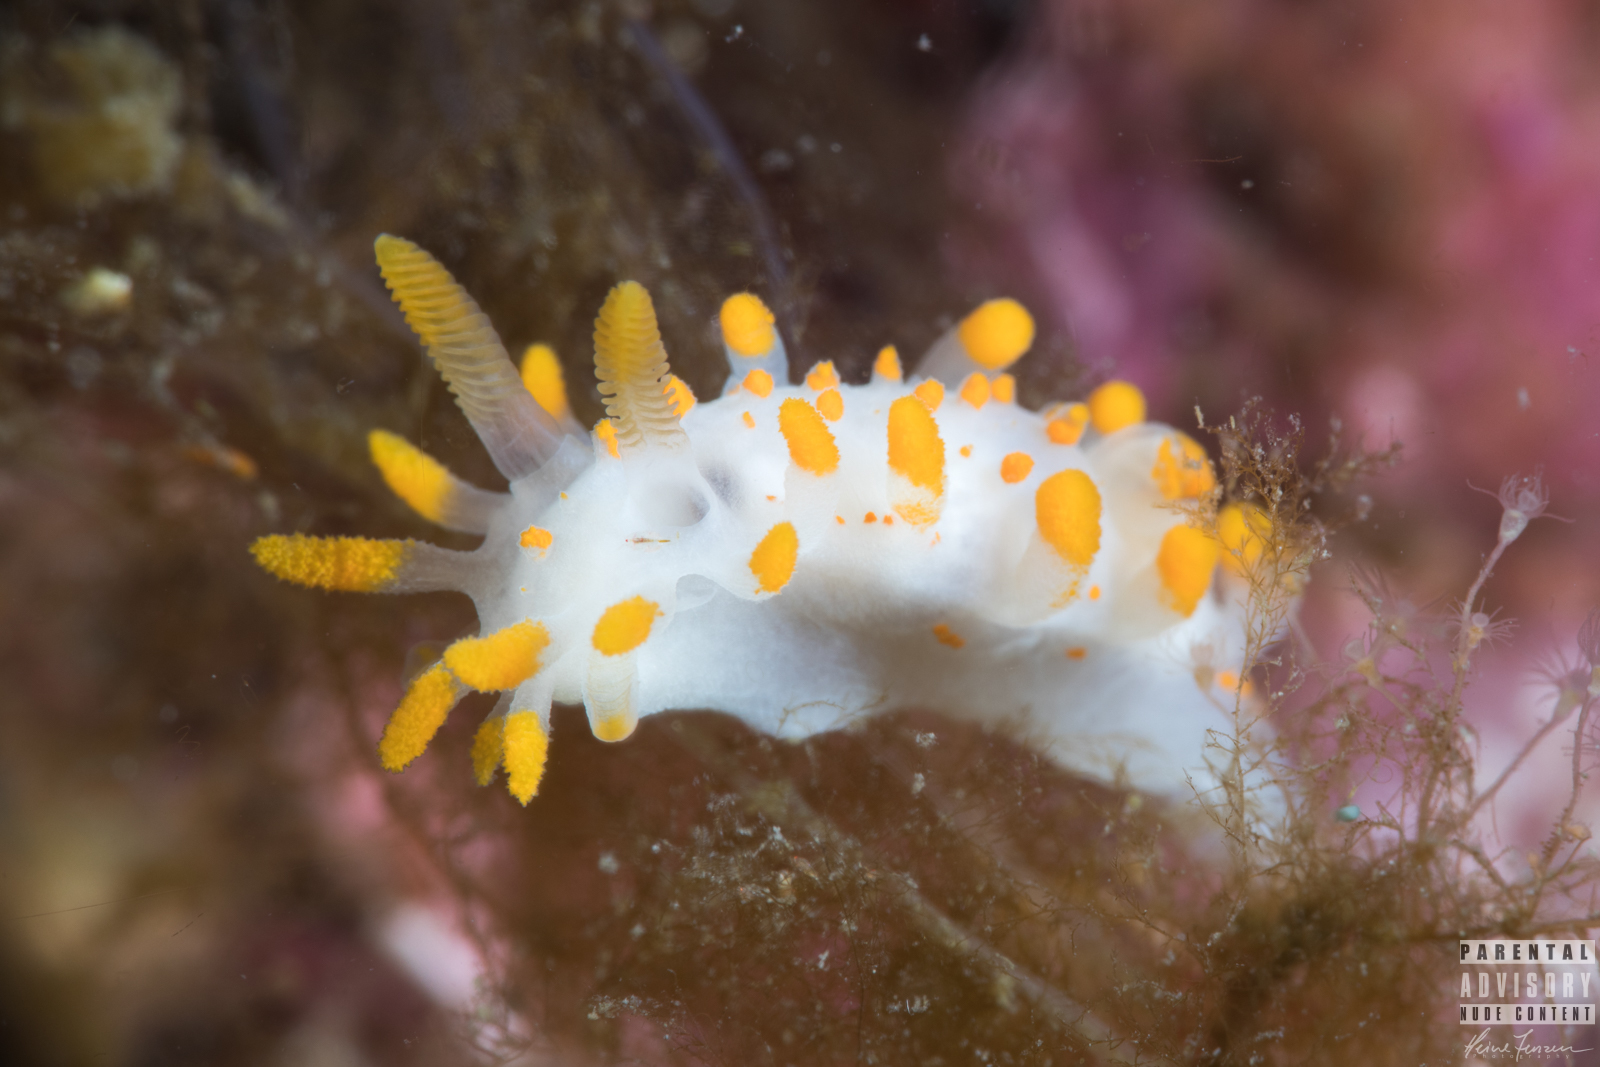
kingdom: Animalia
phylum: Mollusca
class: Gastropoda
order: Nudibranchia
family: Polyceridae
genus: Limacia
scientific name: Limacia clavigera
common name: Orange-clubbed sea slug
